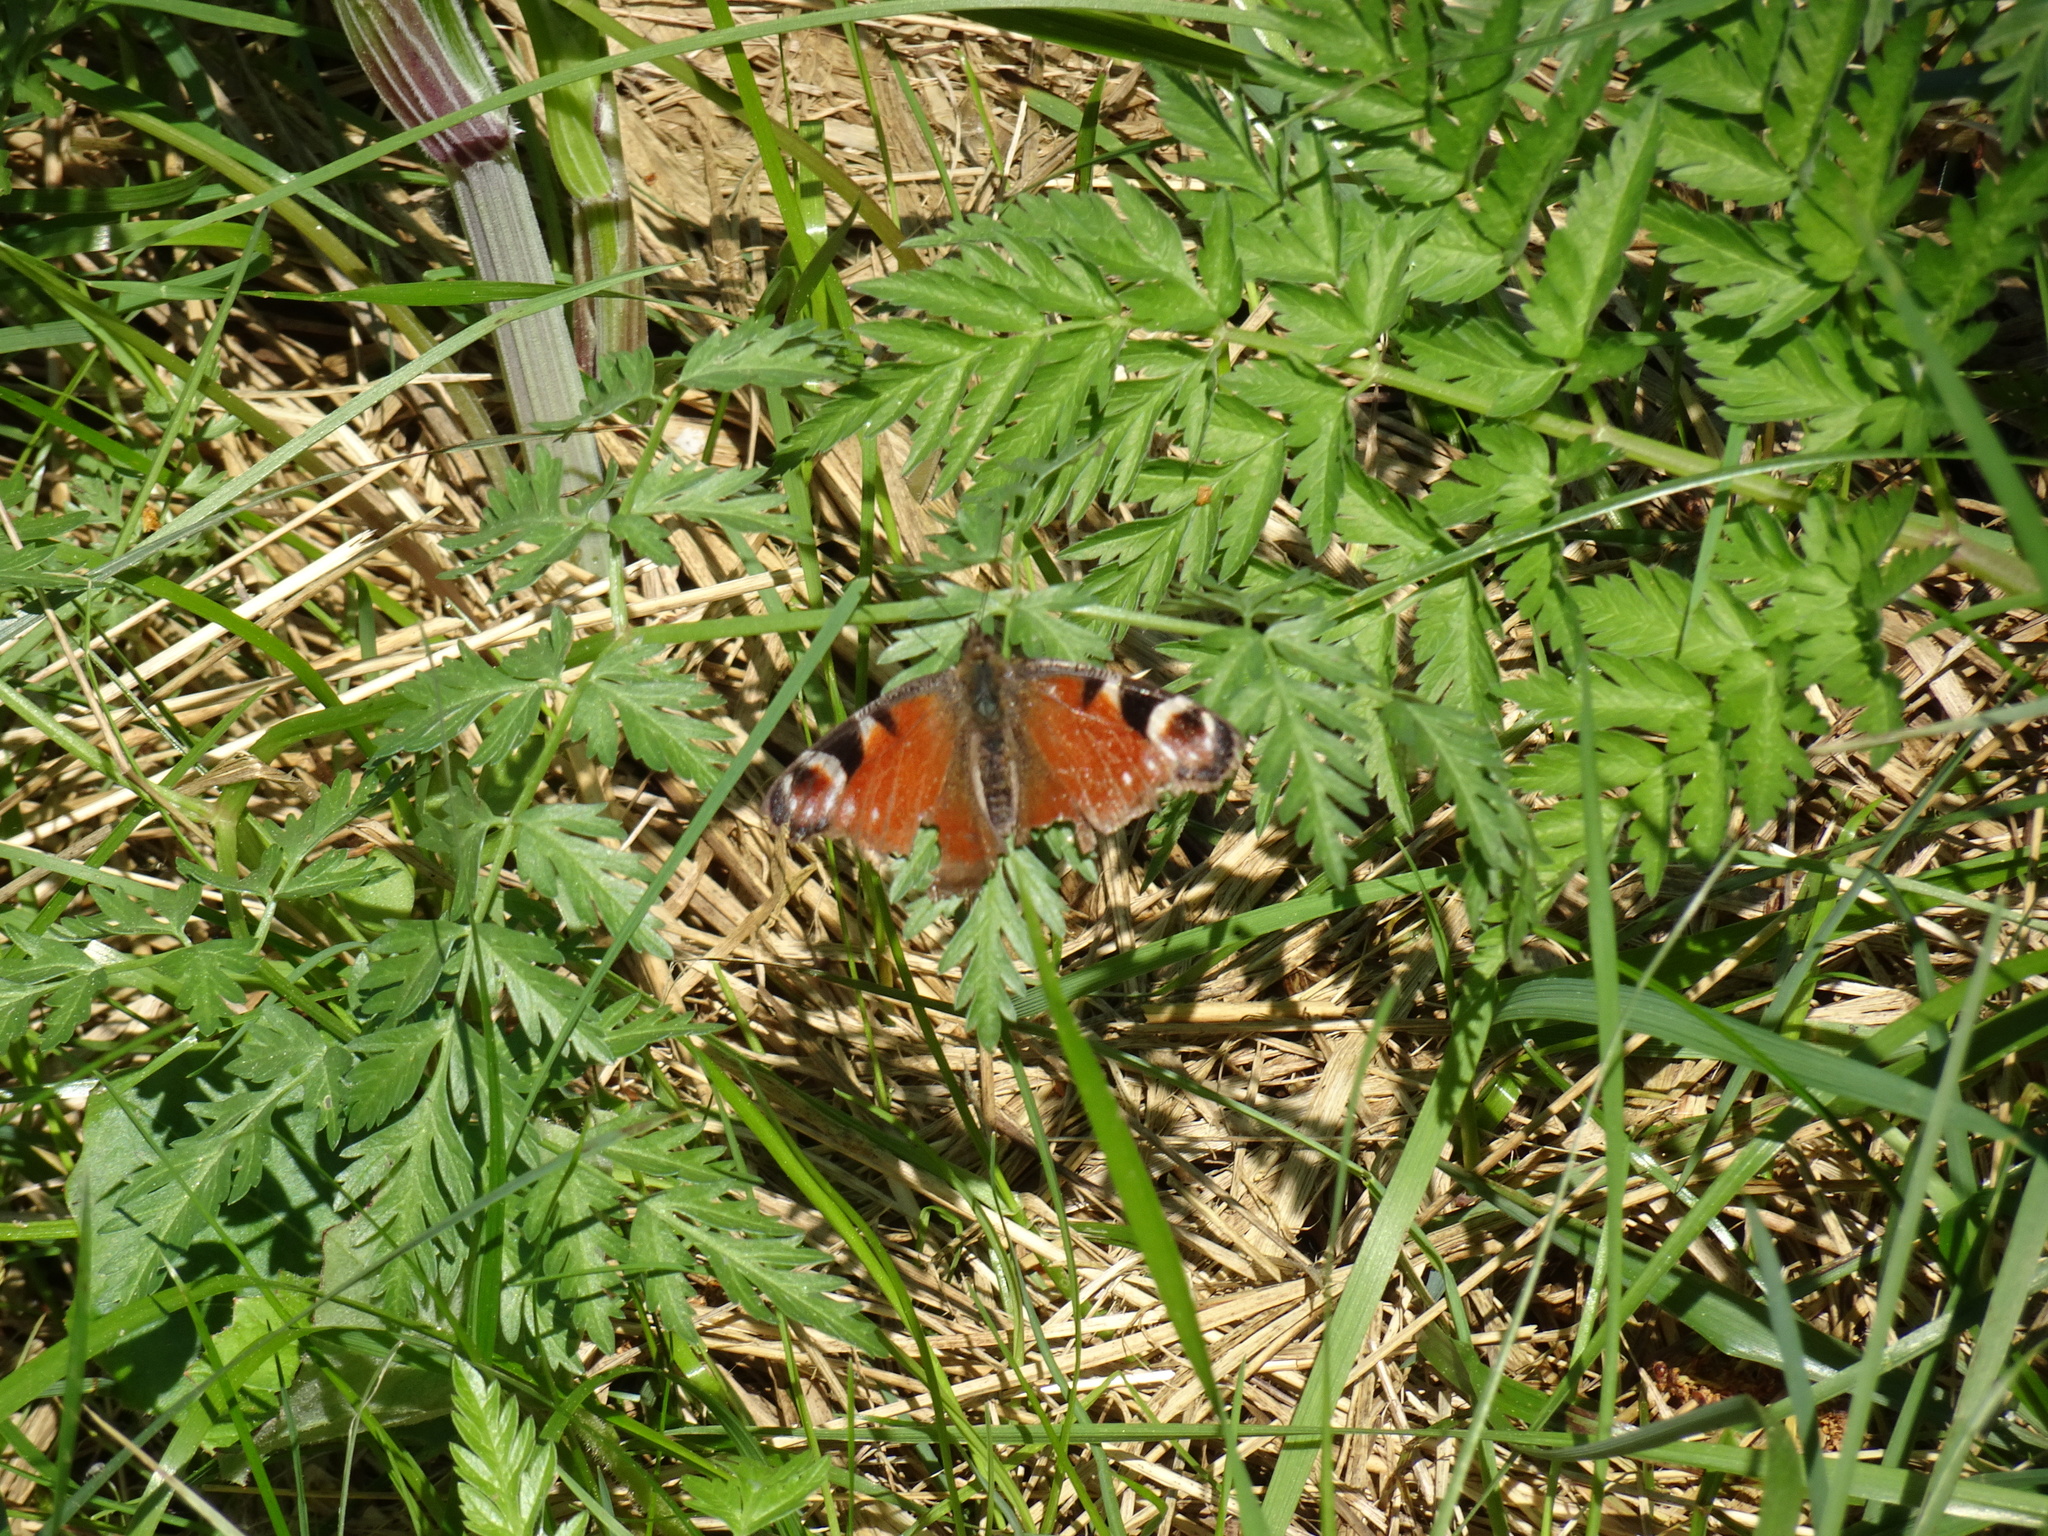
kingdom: Animalia
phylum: Arthropoda
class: Insecta
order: Lepidoptera
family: Nymphalidae
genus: Aglais
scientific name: Aglais io
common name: Peacock
